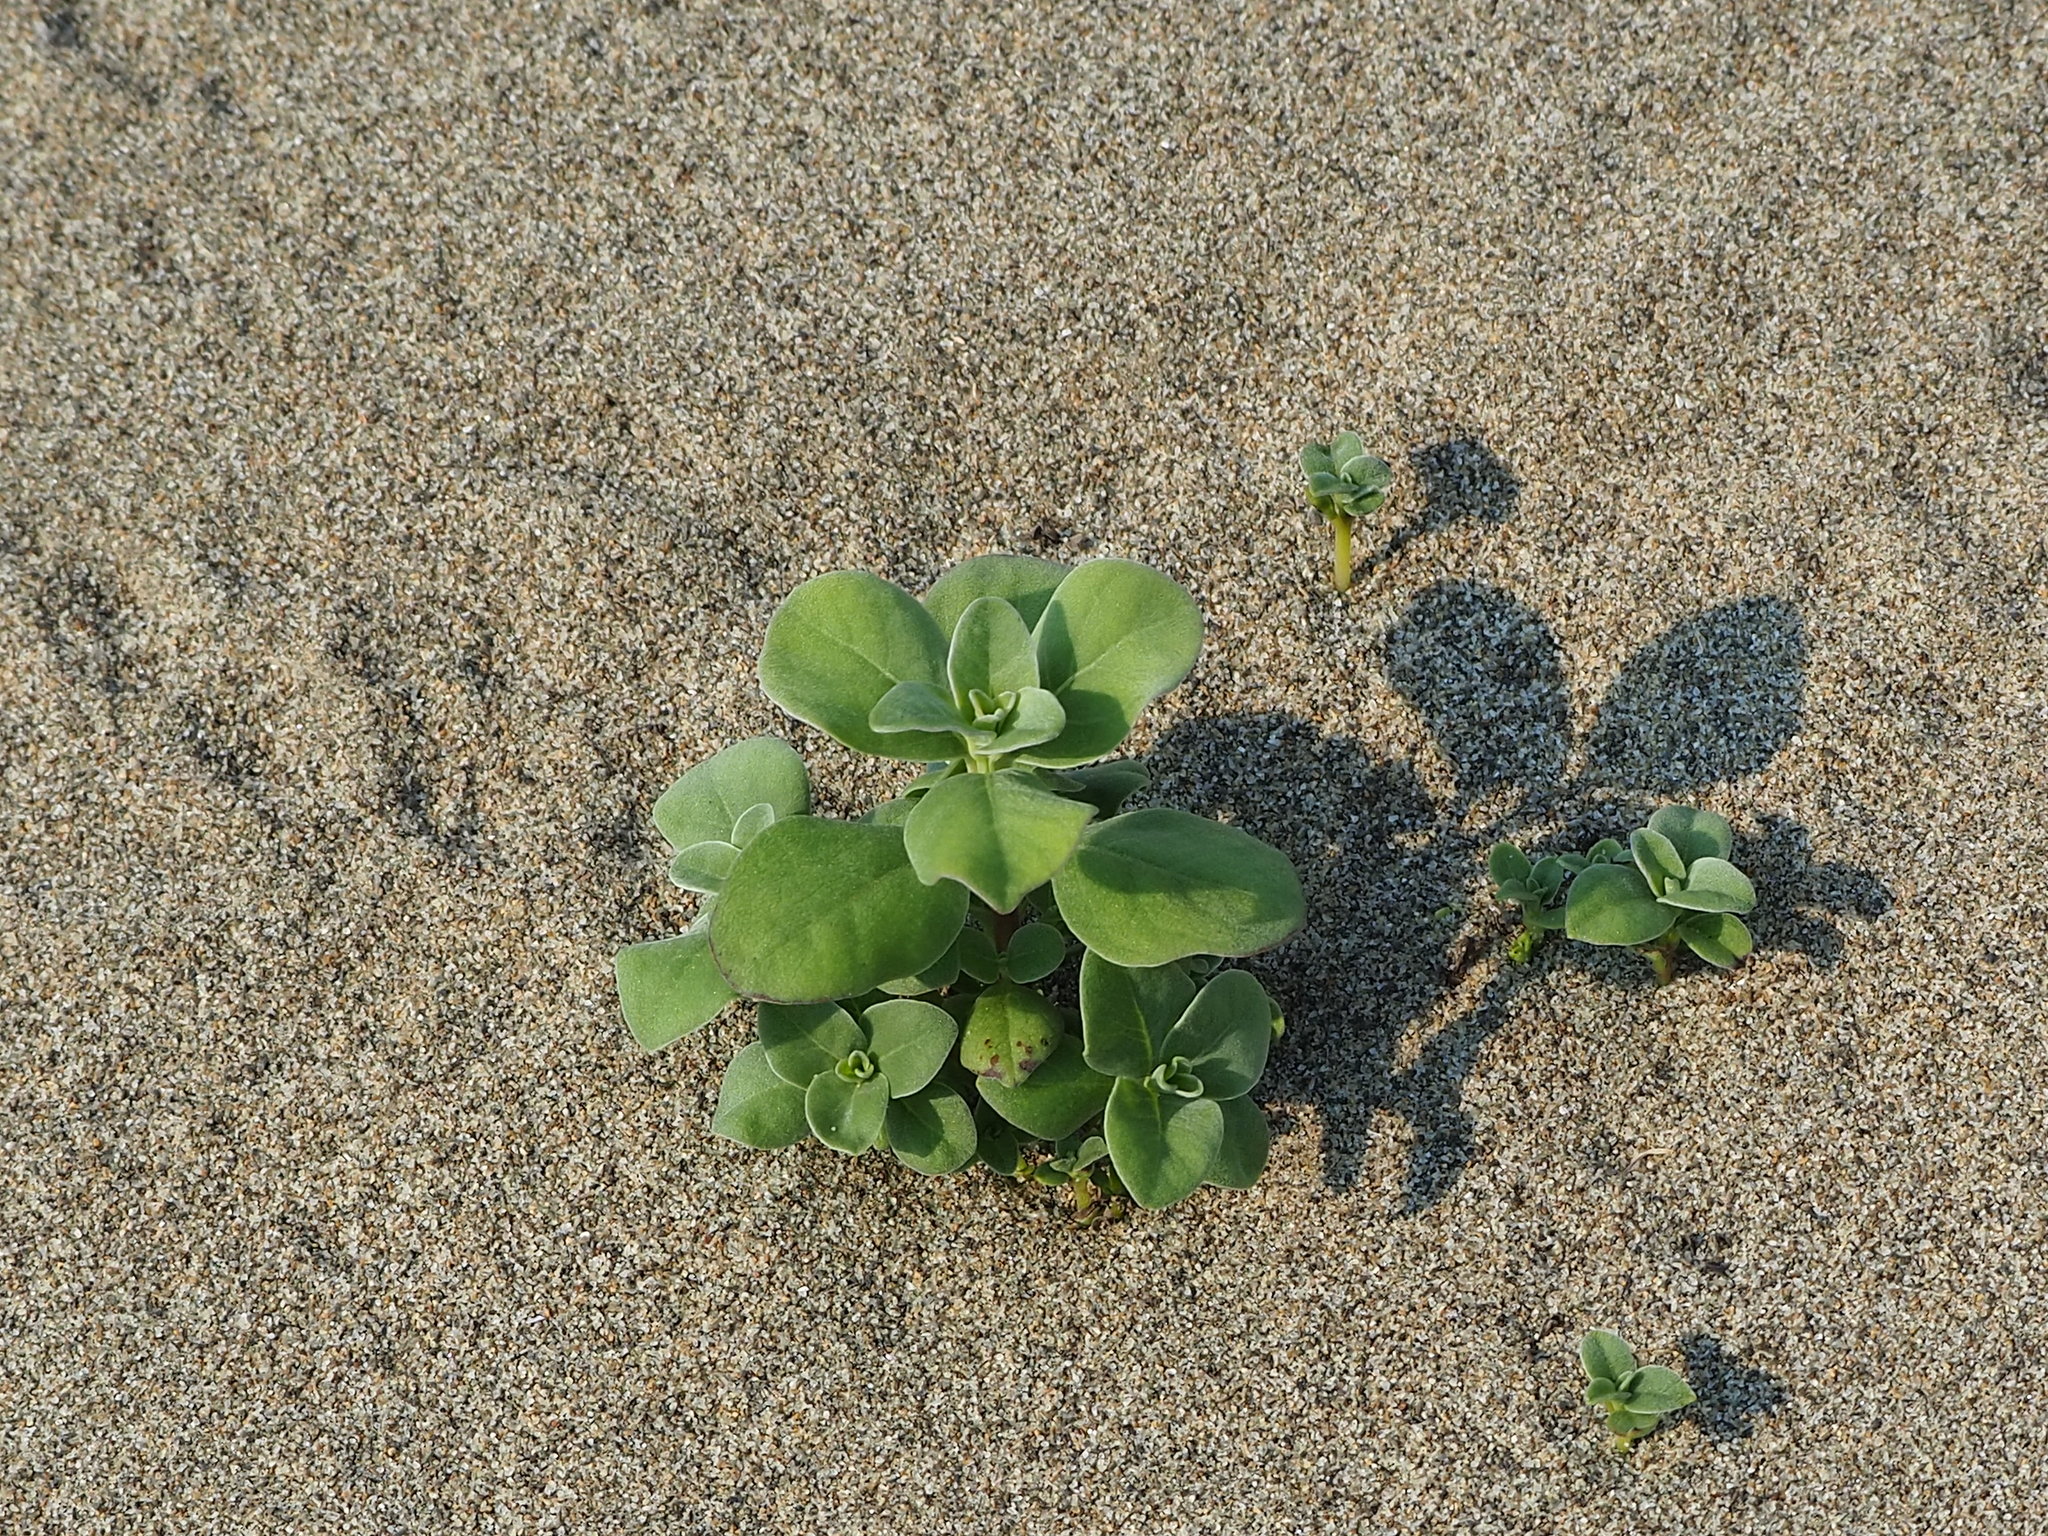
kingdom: Plantae
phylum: Tracheophyta
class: Magnoliopsida
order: Lamiales
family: Lamiaceae
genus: Vitex
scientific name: Vitex rotundifolia
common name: Beach vitex
